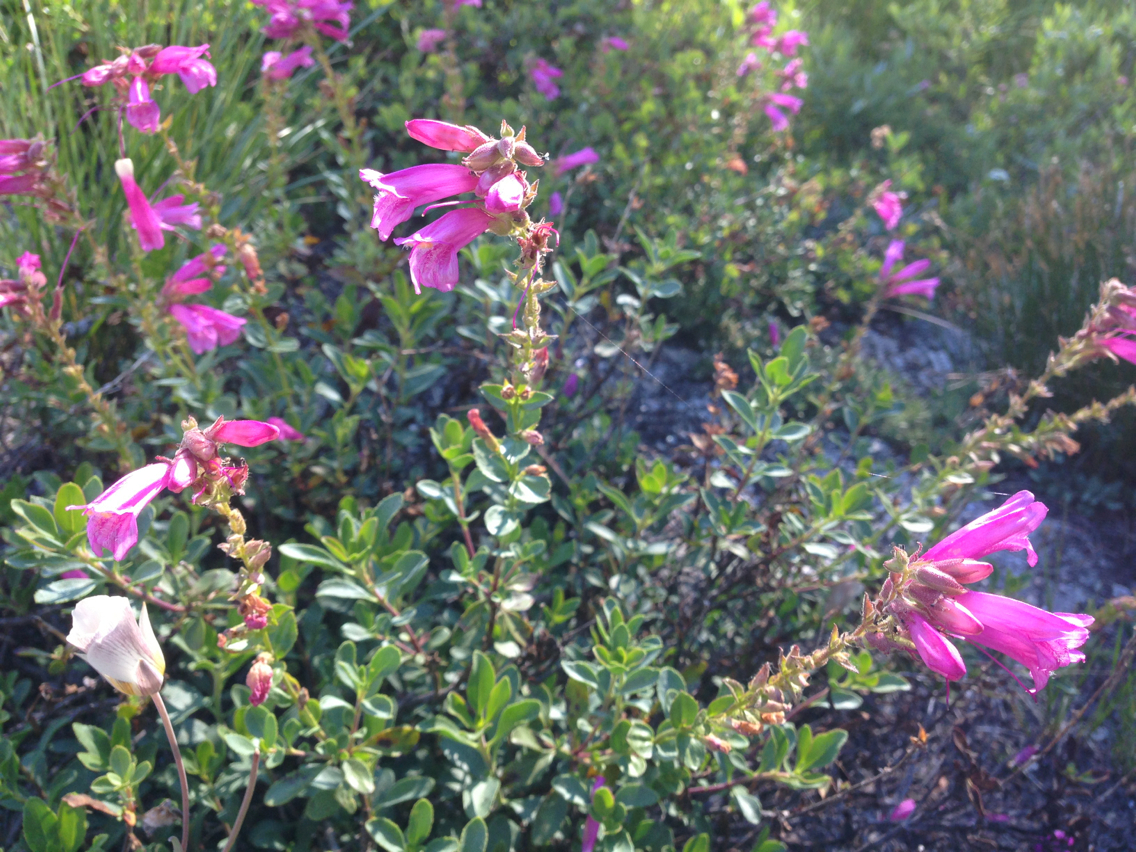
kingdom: Plantae
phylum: Tracheophyta
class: Magnoliopsida
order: Lamiales
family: Plantaginaceae
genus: Penstemon
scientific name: Penstemon newberryi
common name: Mountain-pride
